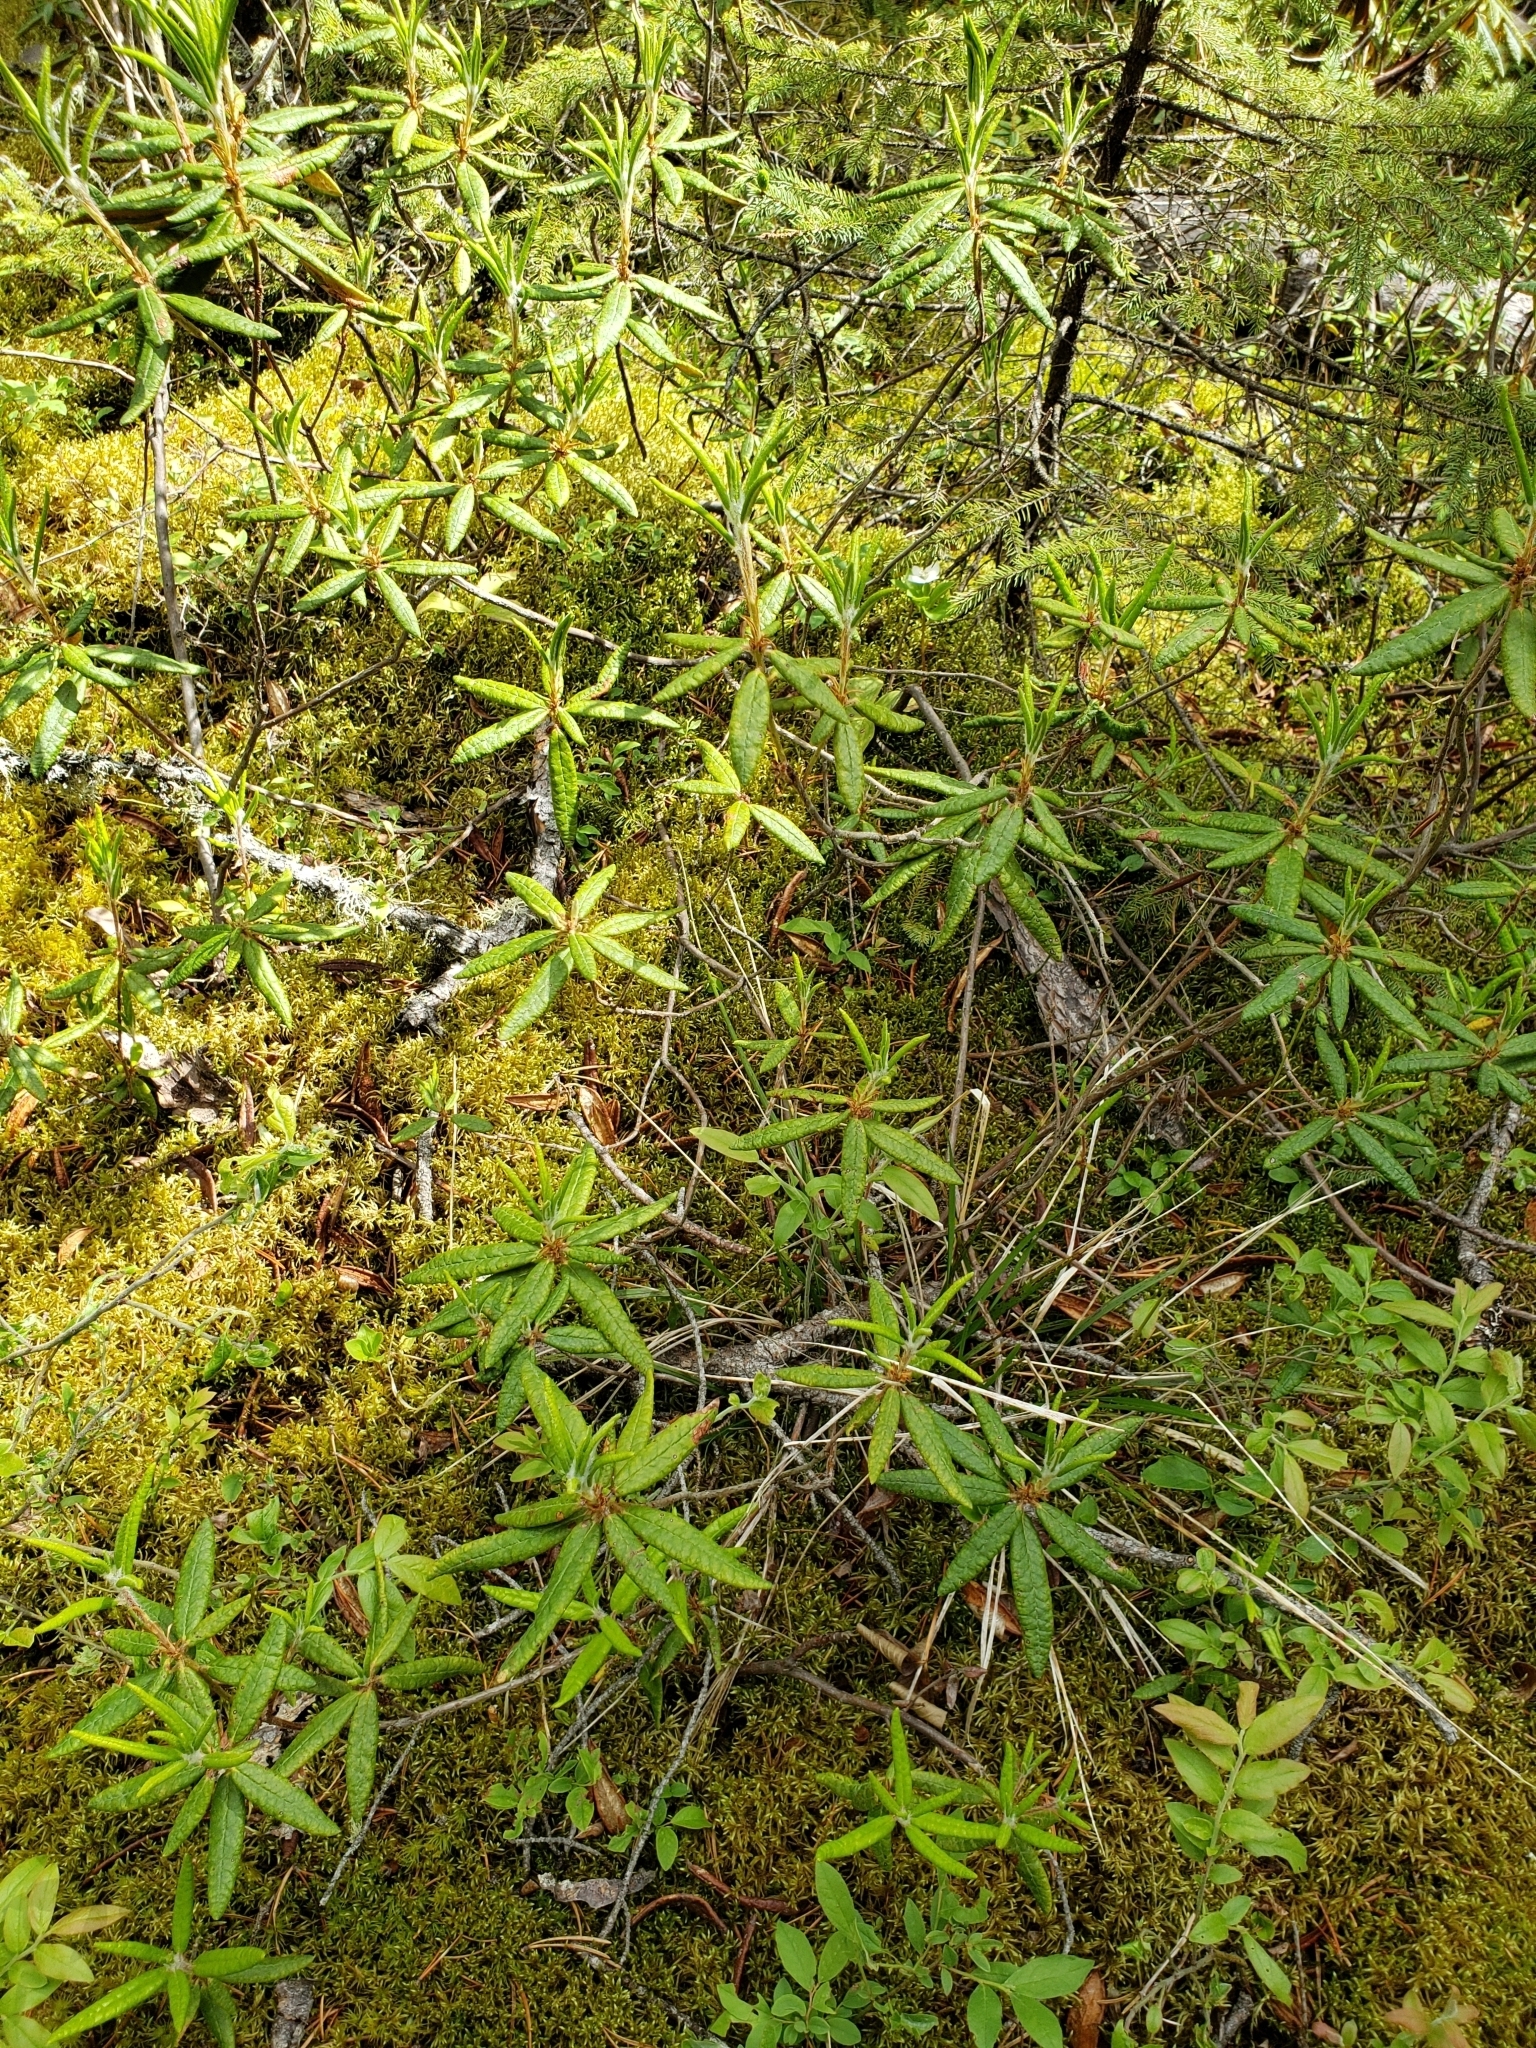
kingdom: Plantae
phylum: Tracheophyta
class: Magnoliopsida
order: Ericales
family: Ericaceae
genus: Rhododendron
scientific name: Rhododendron groenlandicum
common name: Bog labrador tea
